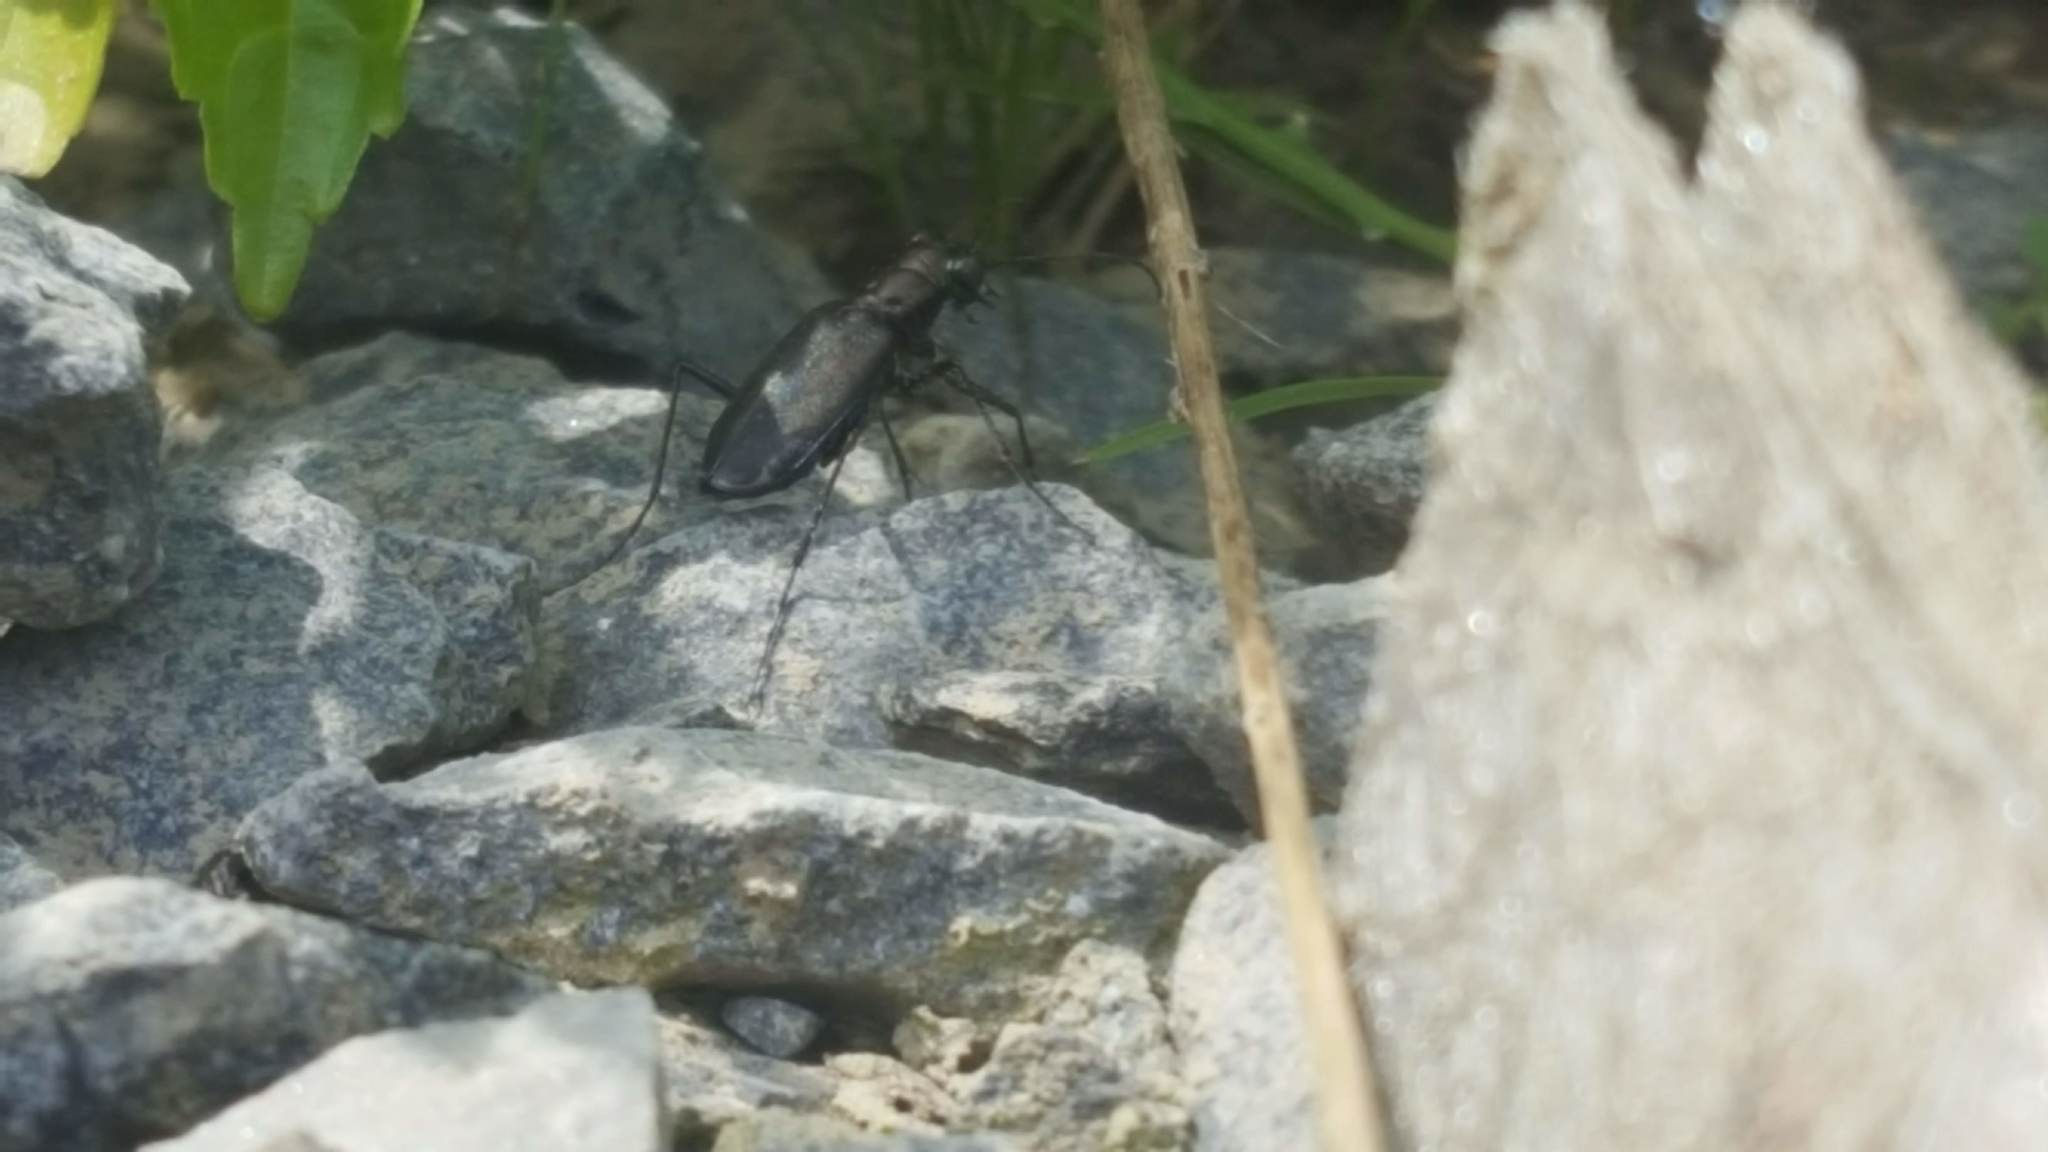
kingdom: Animalia
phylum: Arthropoda
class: Insecta
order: Coleoptera
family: Carabidae
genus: Cicindela
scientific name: Cicindela punctulata
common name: Punctured tiger beetle
